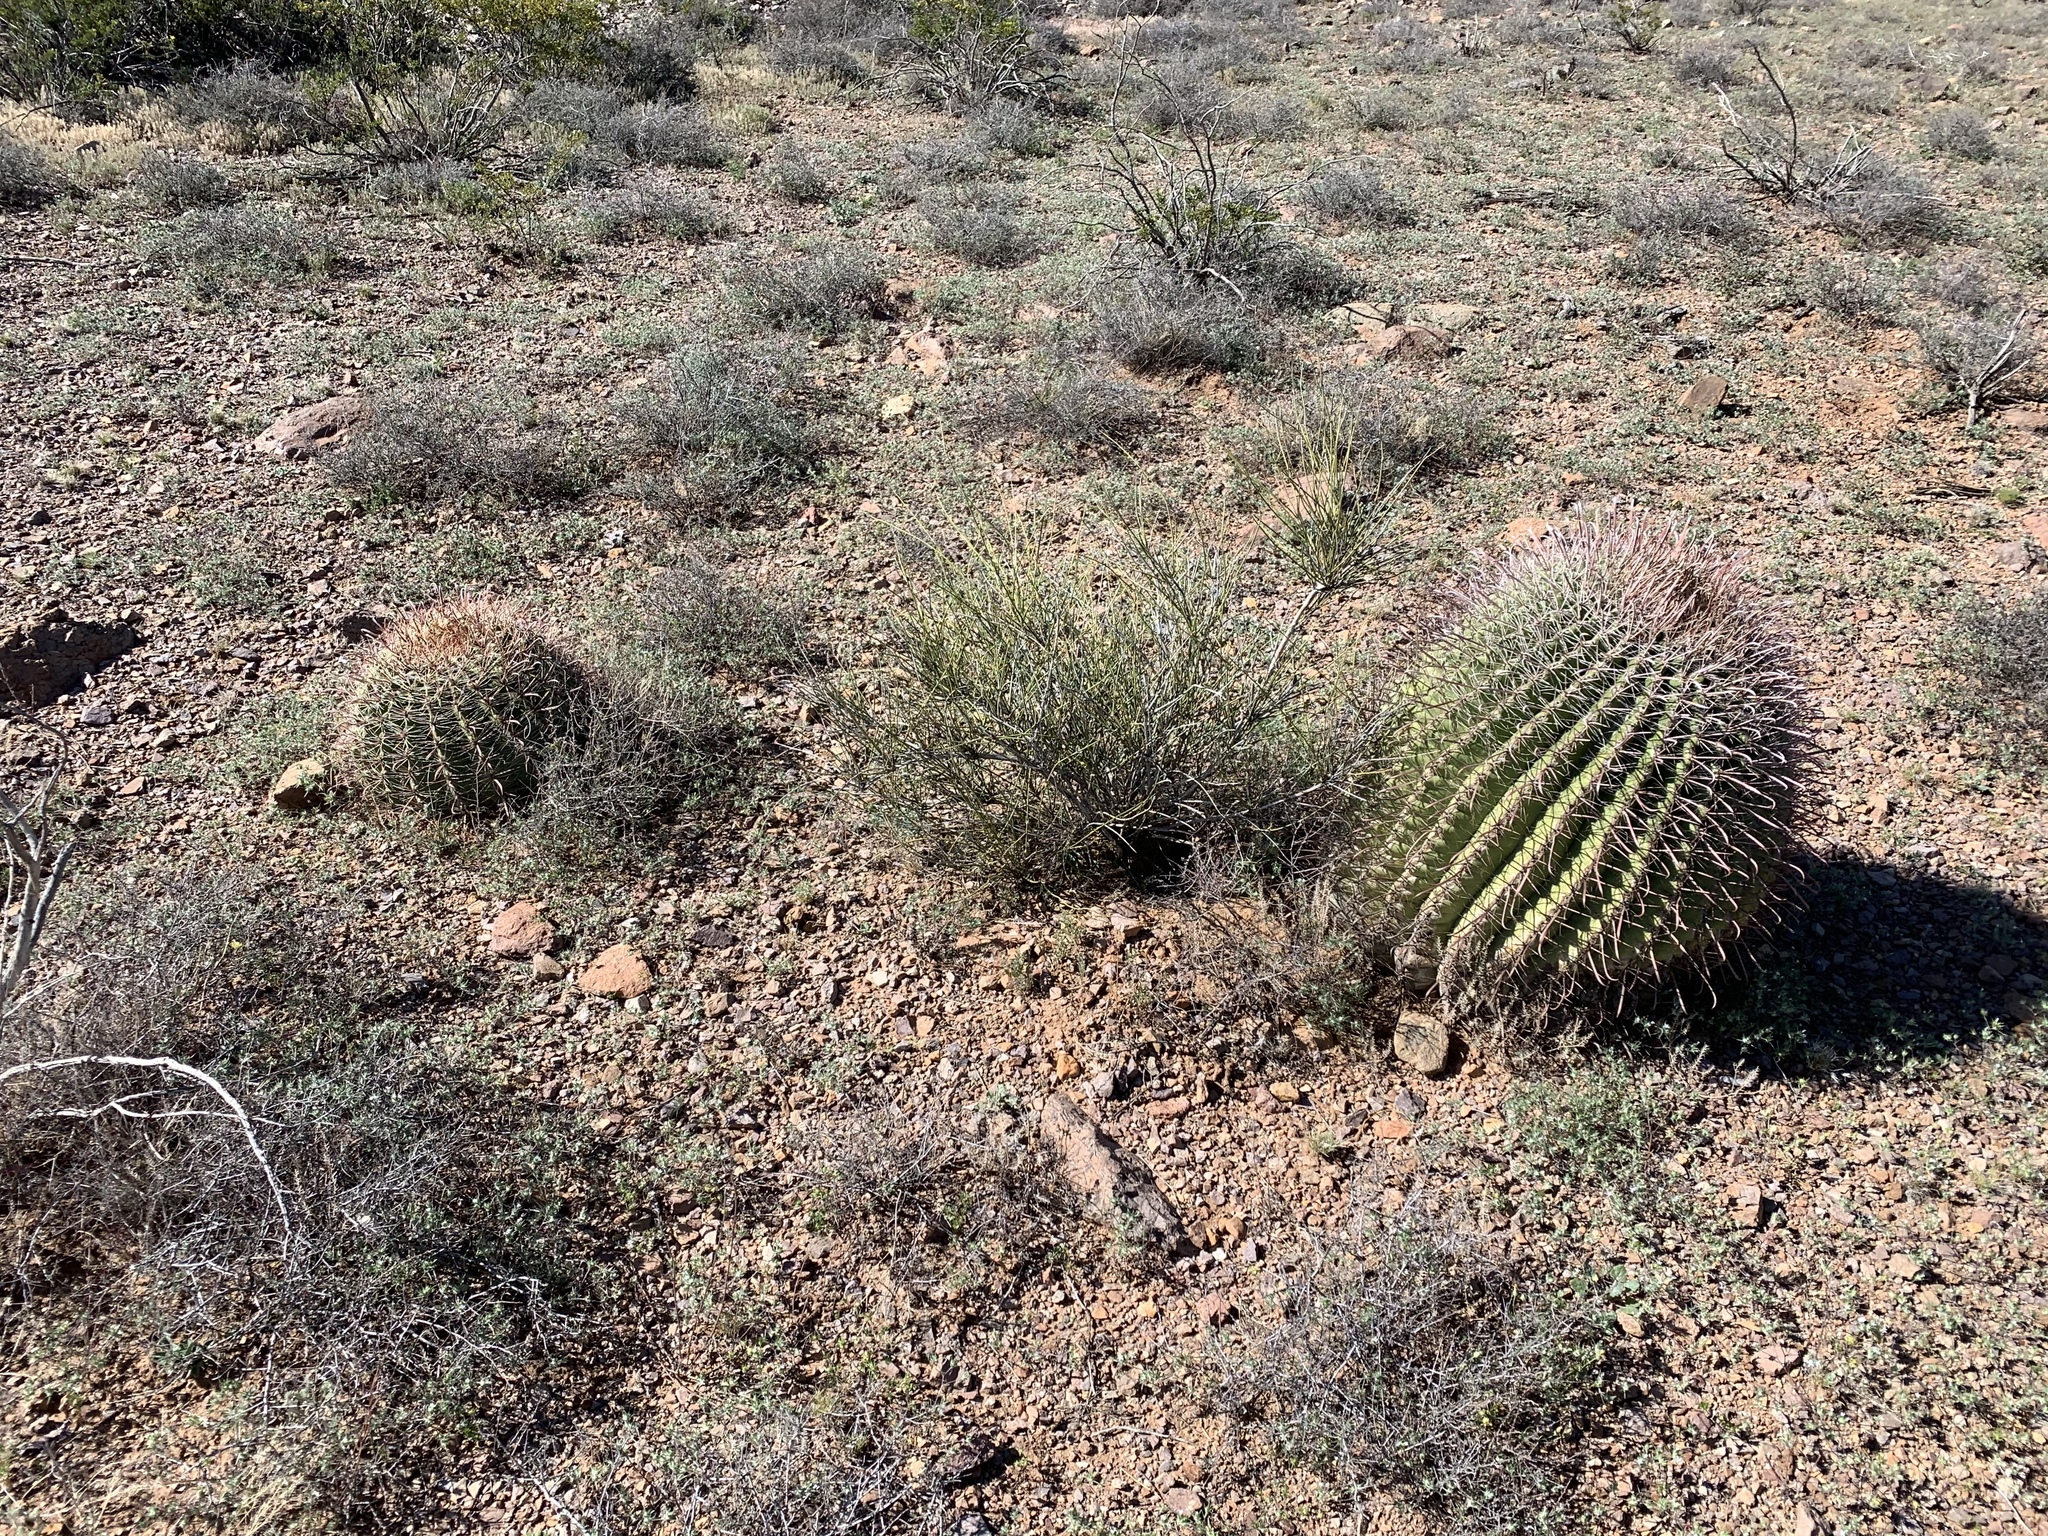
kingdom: Plantae
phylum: Tracheophyta
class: Magnoliopsida
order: Caryophyllales
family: Cactaceae
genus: Ferocactus
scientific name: Ferocactus wislizeni
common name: Candy barrel cactus
